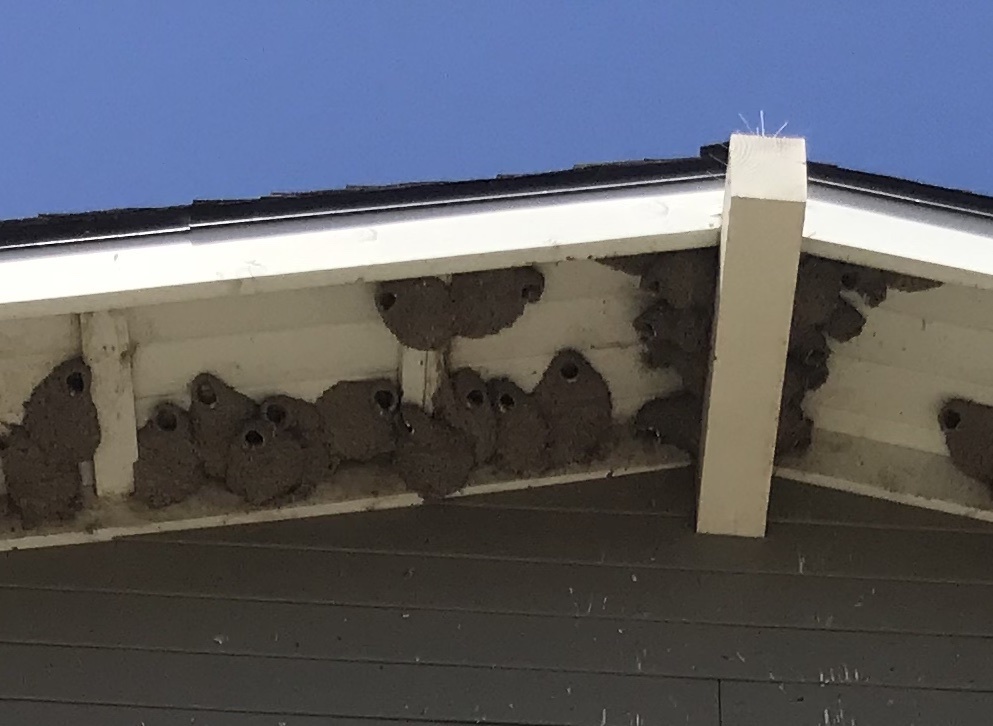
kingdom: Animalia
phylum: Chordata
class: Aves
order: Passeriformes
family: Hirundinidae
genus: Petrochelidon
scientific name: Petrochelidon pyrrhonota
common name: American cliff swallow
